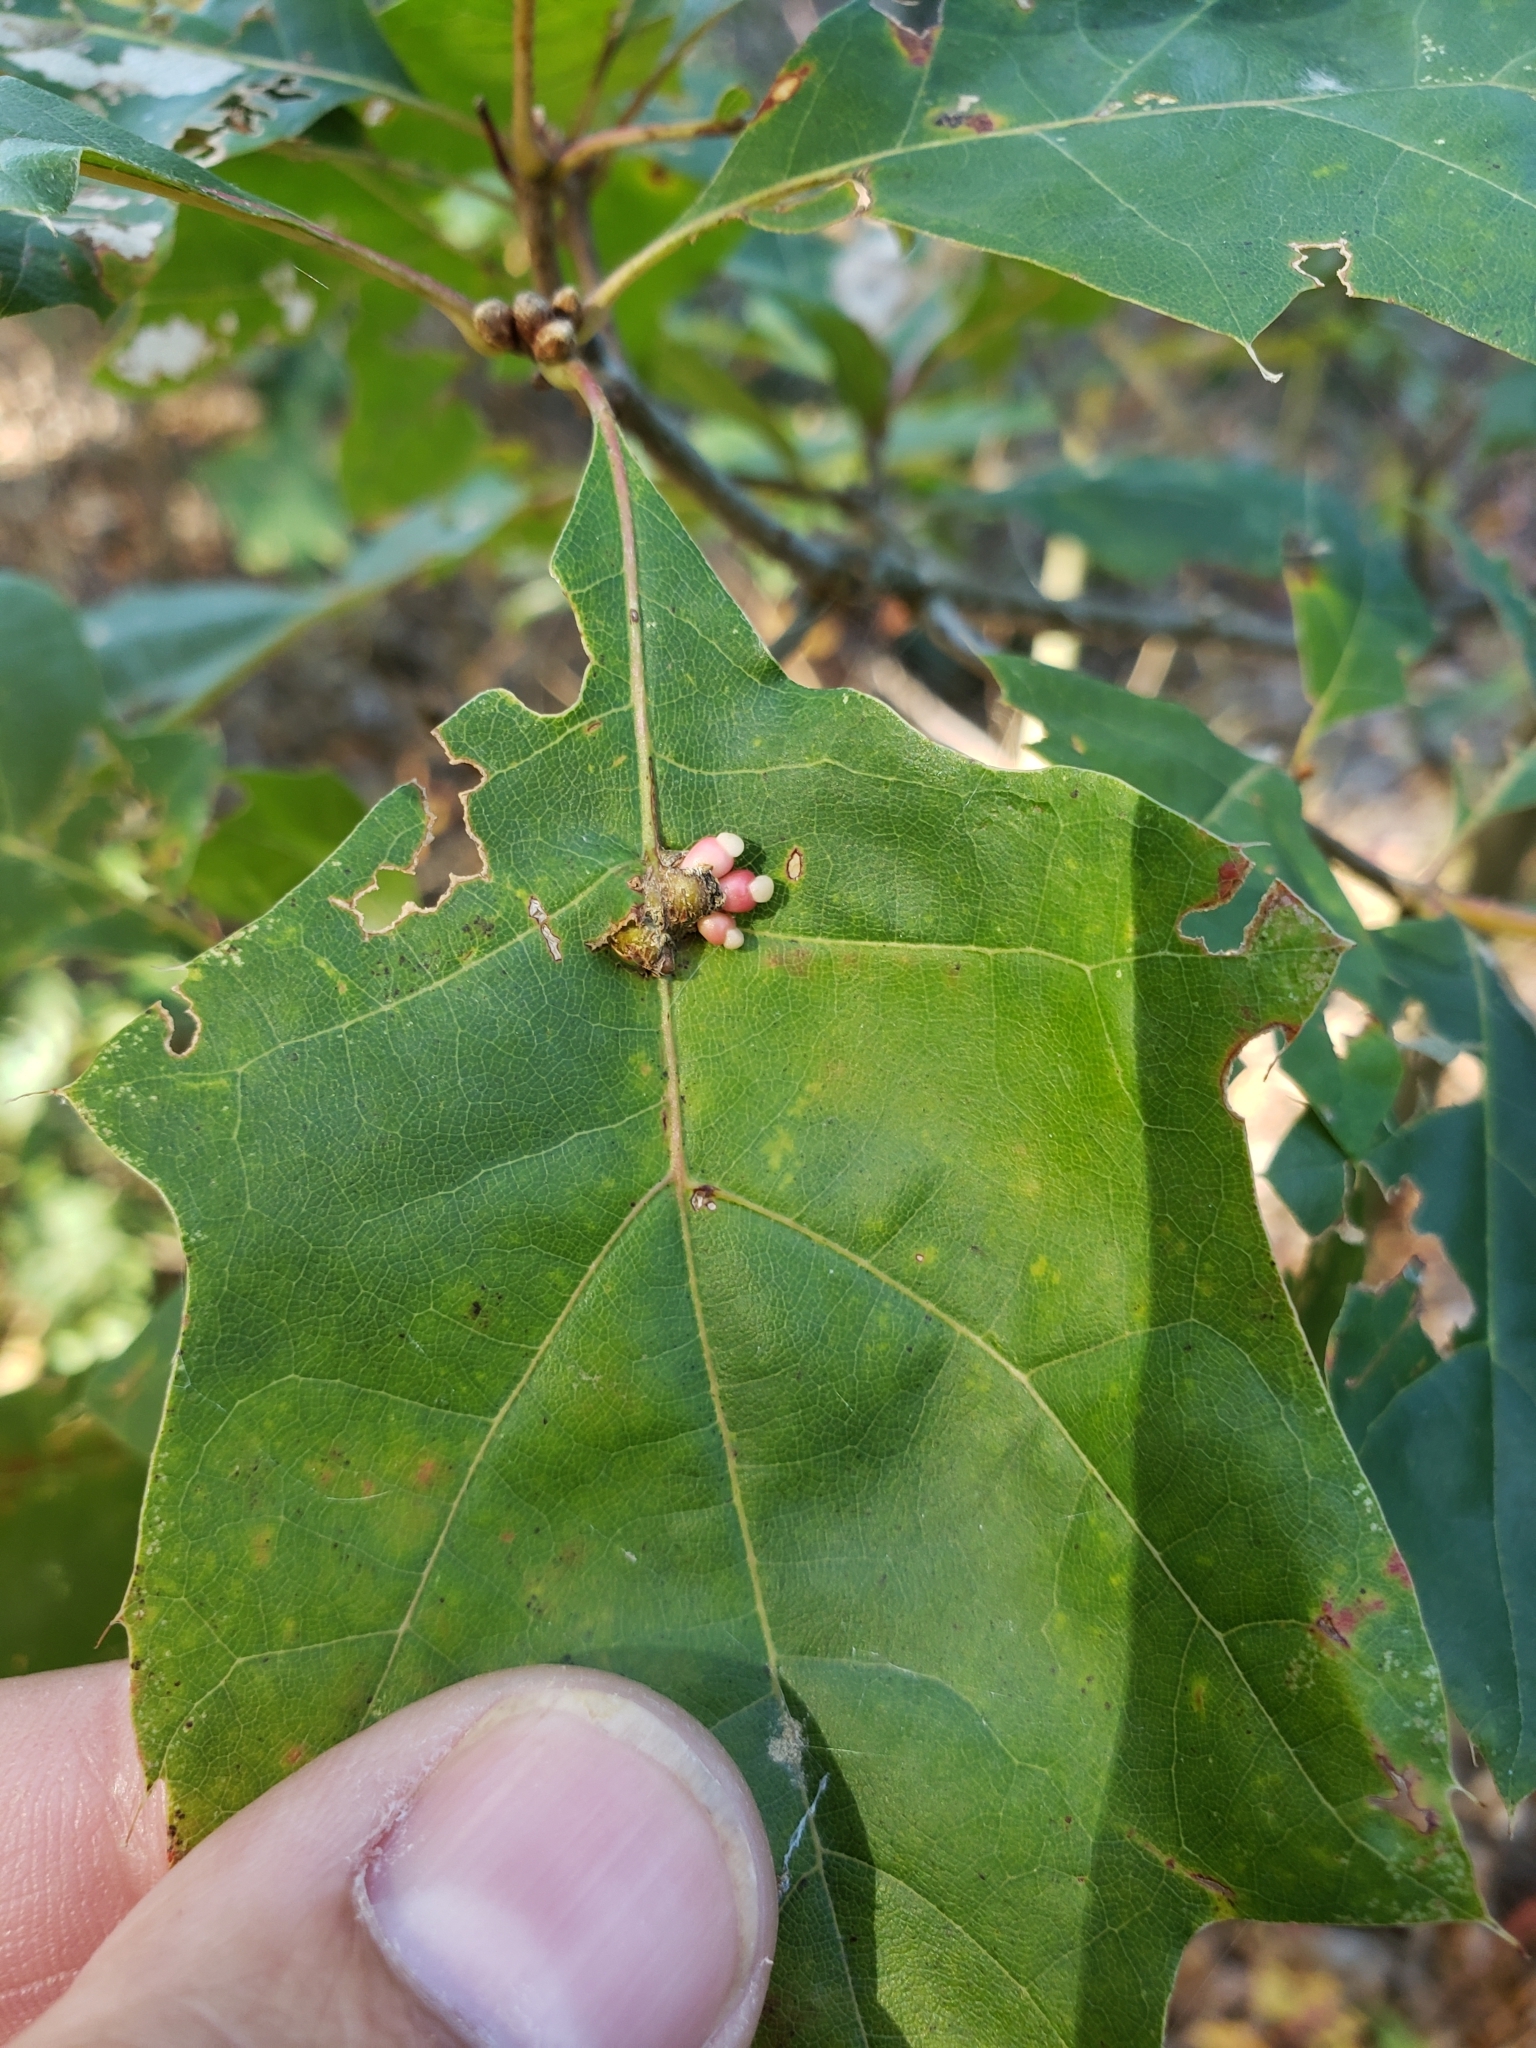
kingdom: Animalia
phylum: Arthropoda
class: Insecta
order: Hymenoptera
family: Cynipidae
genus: Kokkocynips
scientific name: Kokkocynips decidua
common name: Oak wheat gall
